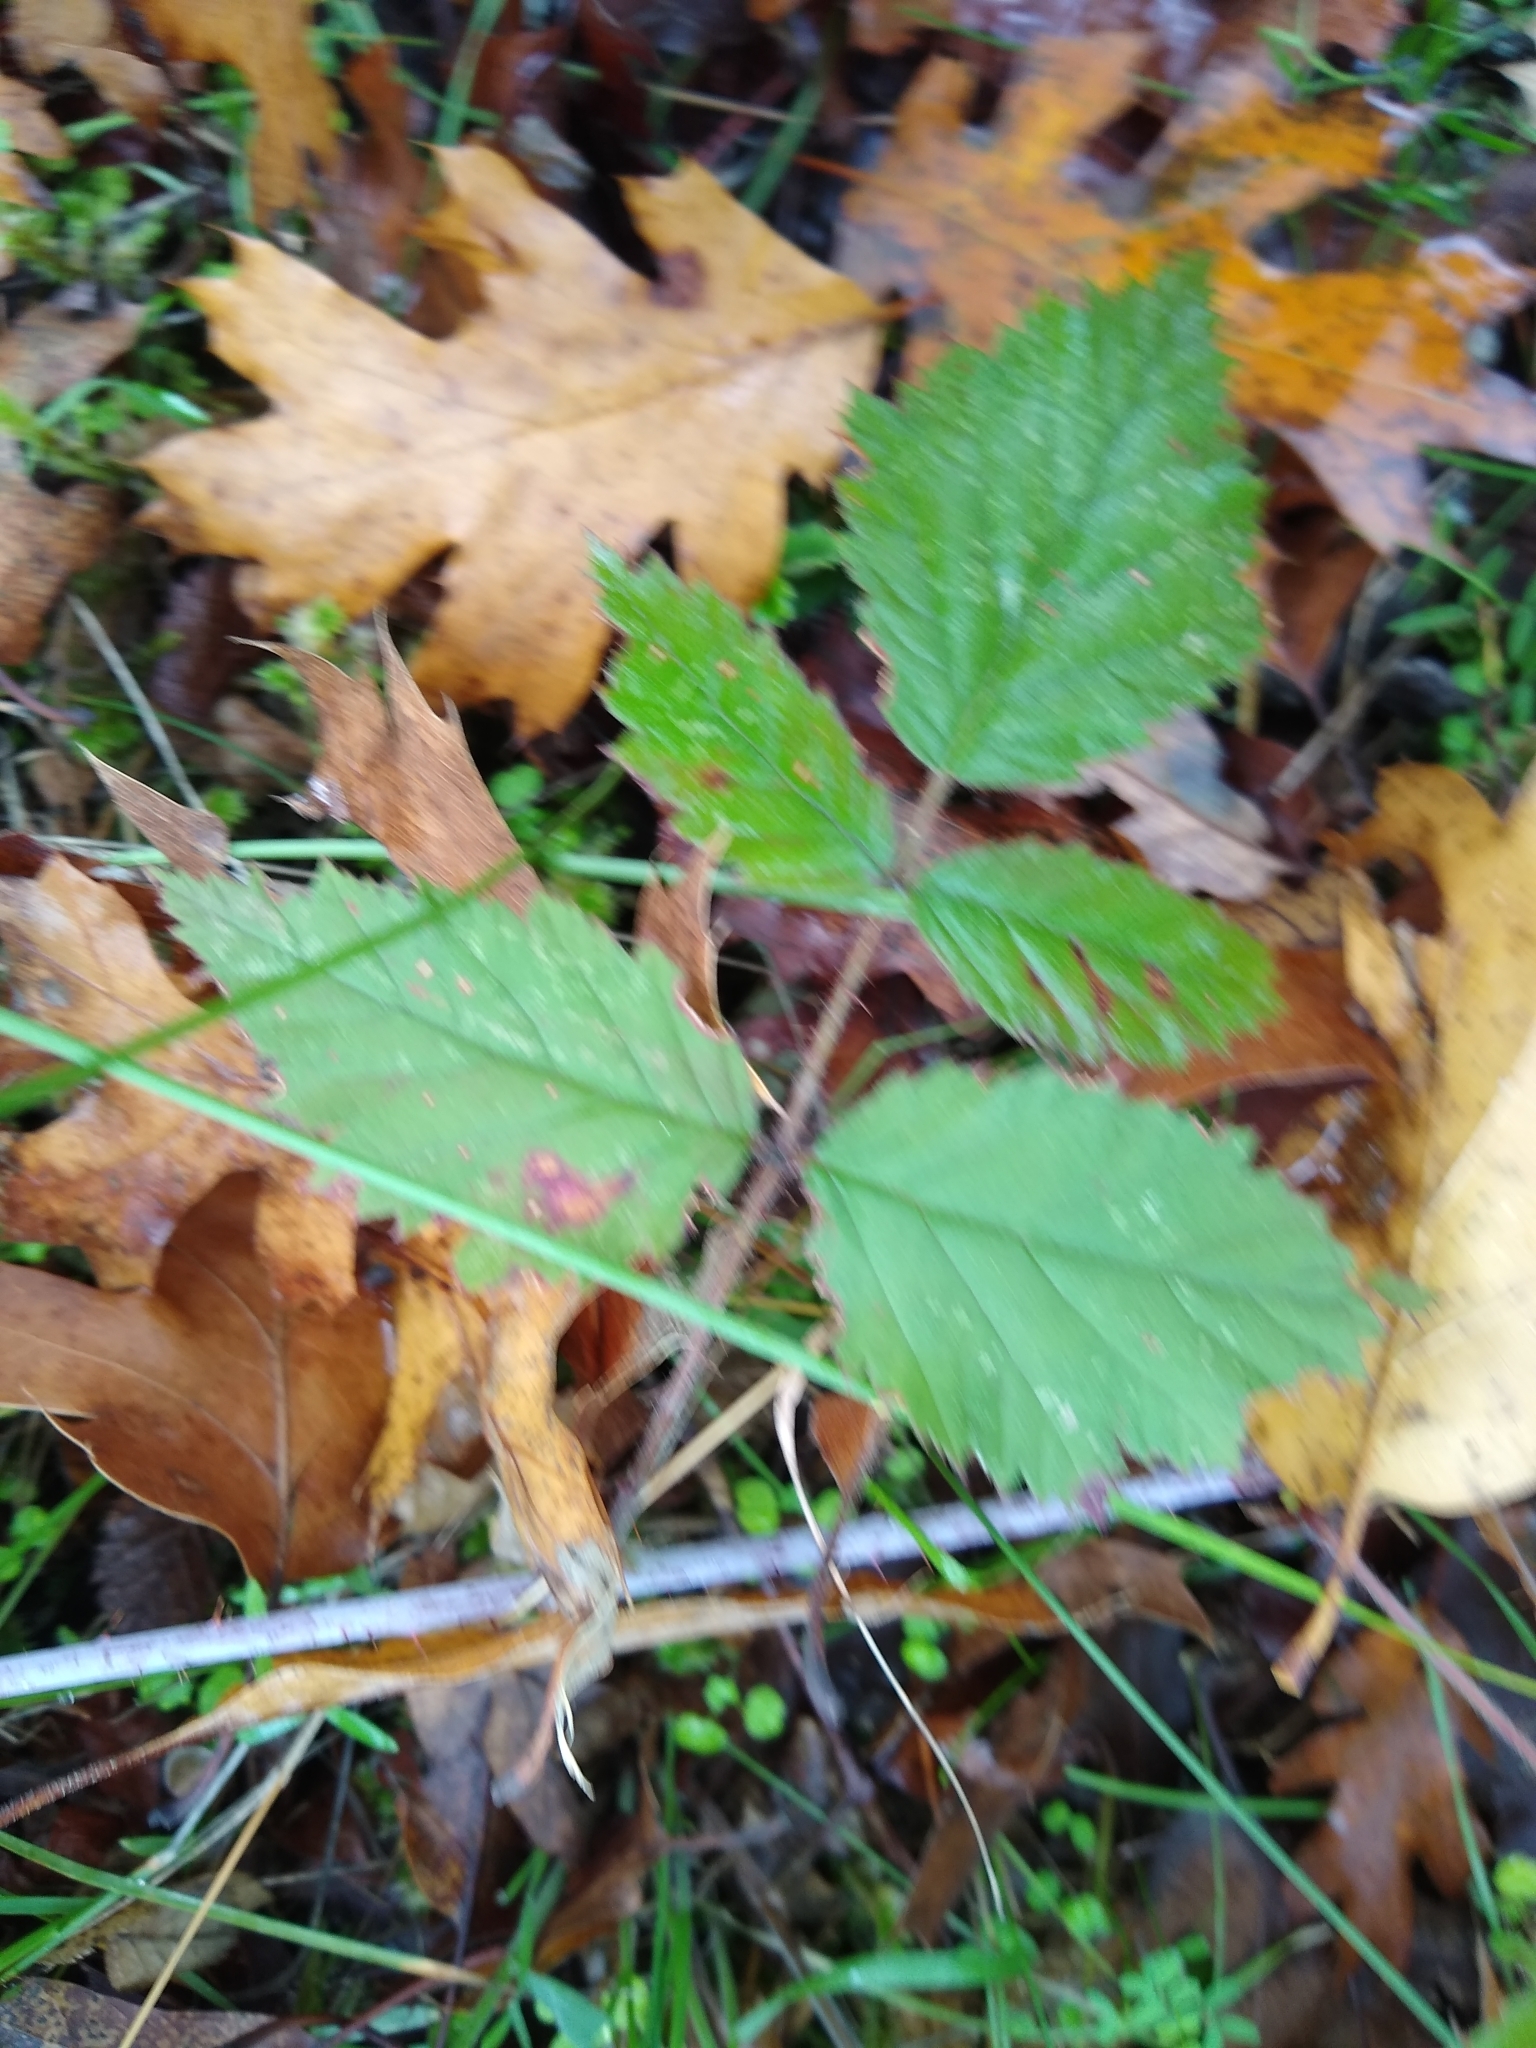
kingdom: Plantae
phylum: Tracheophyta
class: Magnoliopsida
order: Rosales
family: Rosaceae
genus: Rubus
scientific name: Rubus ursinus
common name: Pacific blackberry
